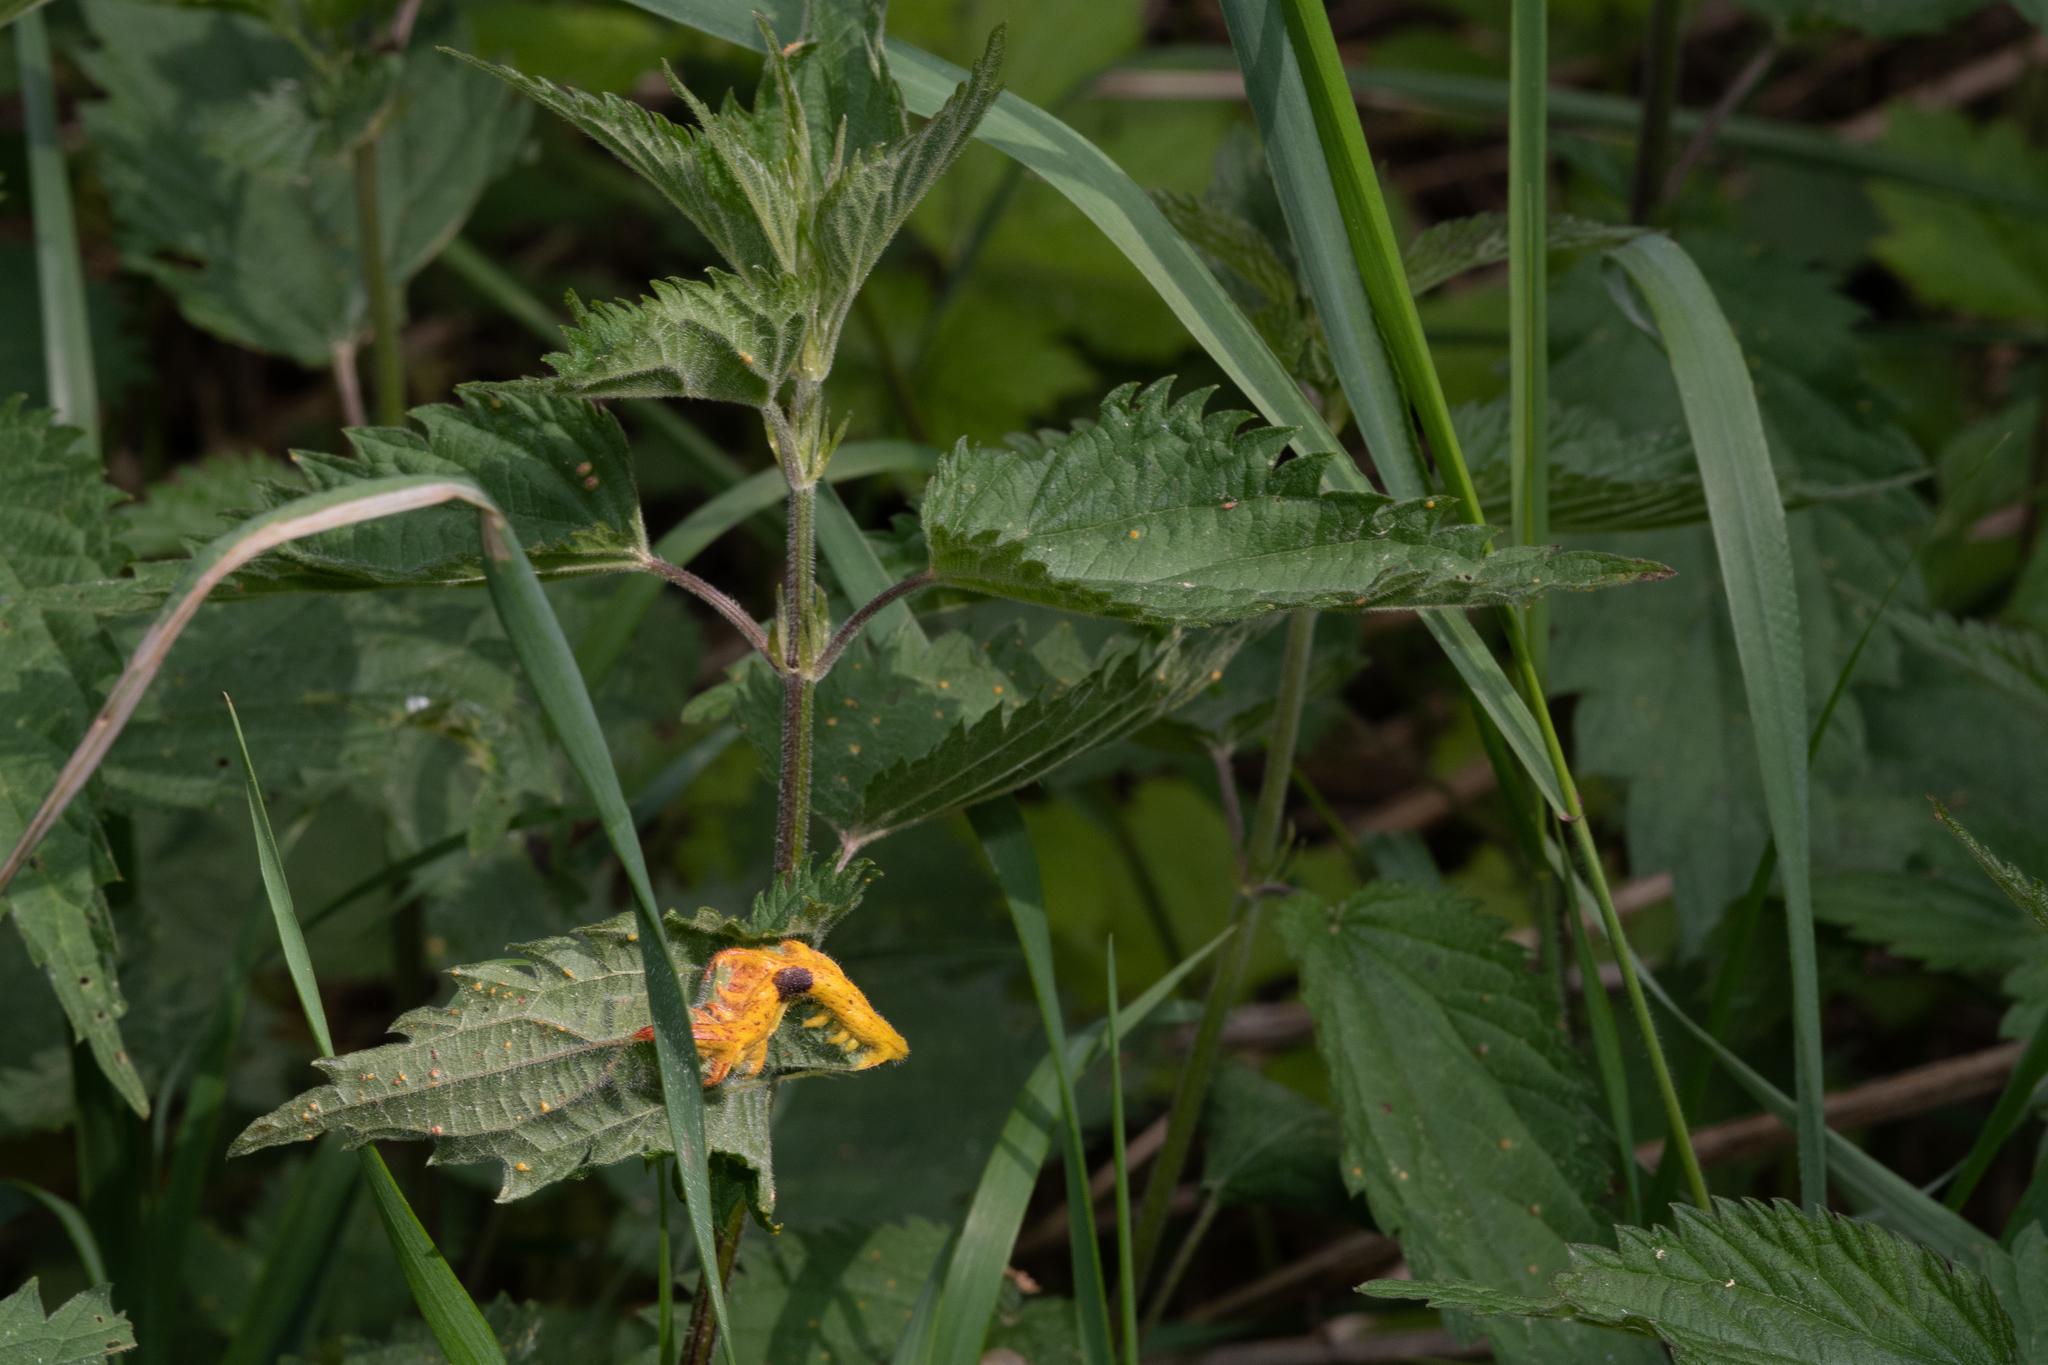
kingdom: Fungi
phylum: Basidiomycota
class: Pucciniomycetes
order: Pucciniales
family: Pucciniaceae
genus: Puccinia
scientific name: Puccinia urticata
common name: Nettle clustercup rust fungus
